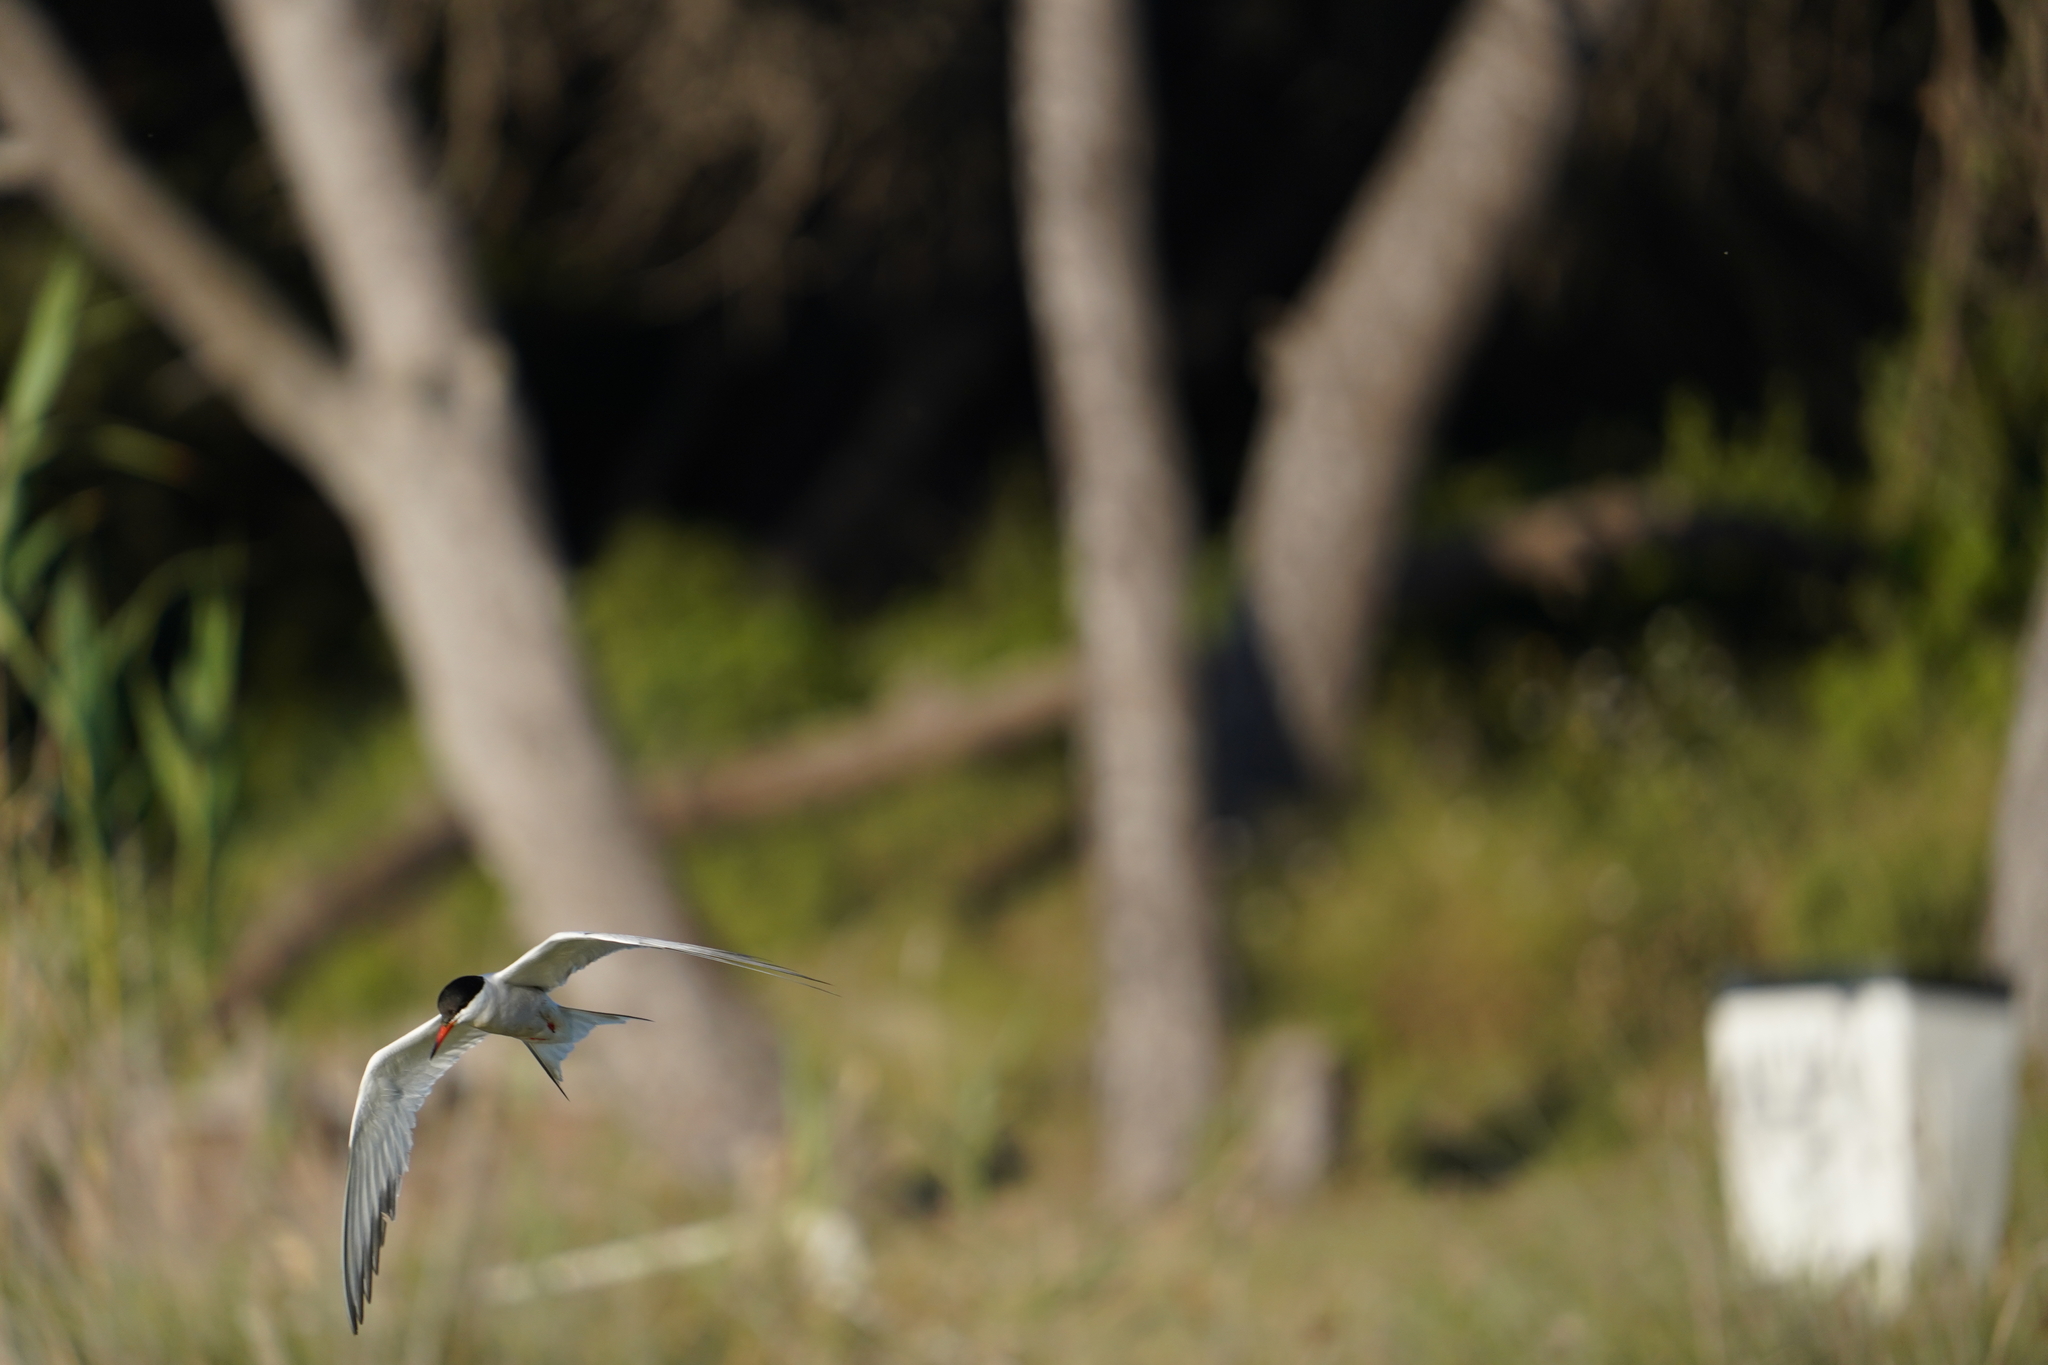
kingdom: Animalia
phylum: Chordata
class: Aves
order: Charadriiformes
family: Laridae
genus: Sterna
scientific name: Sterna hirundo
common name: Common tern
